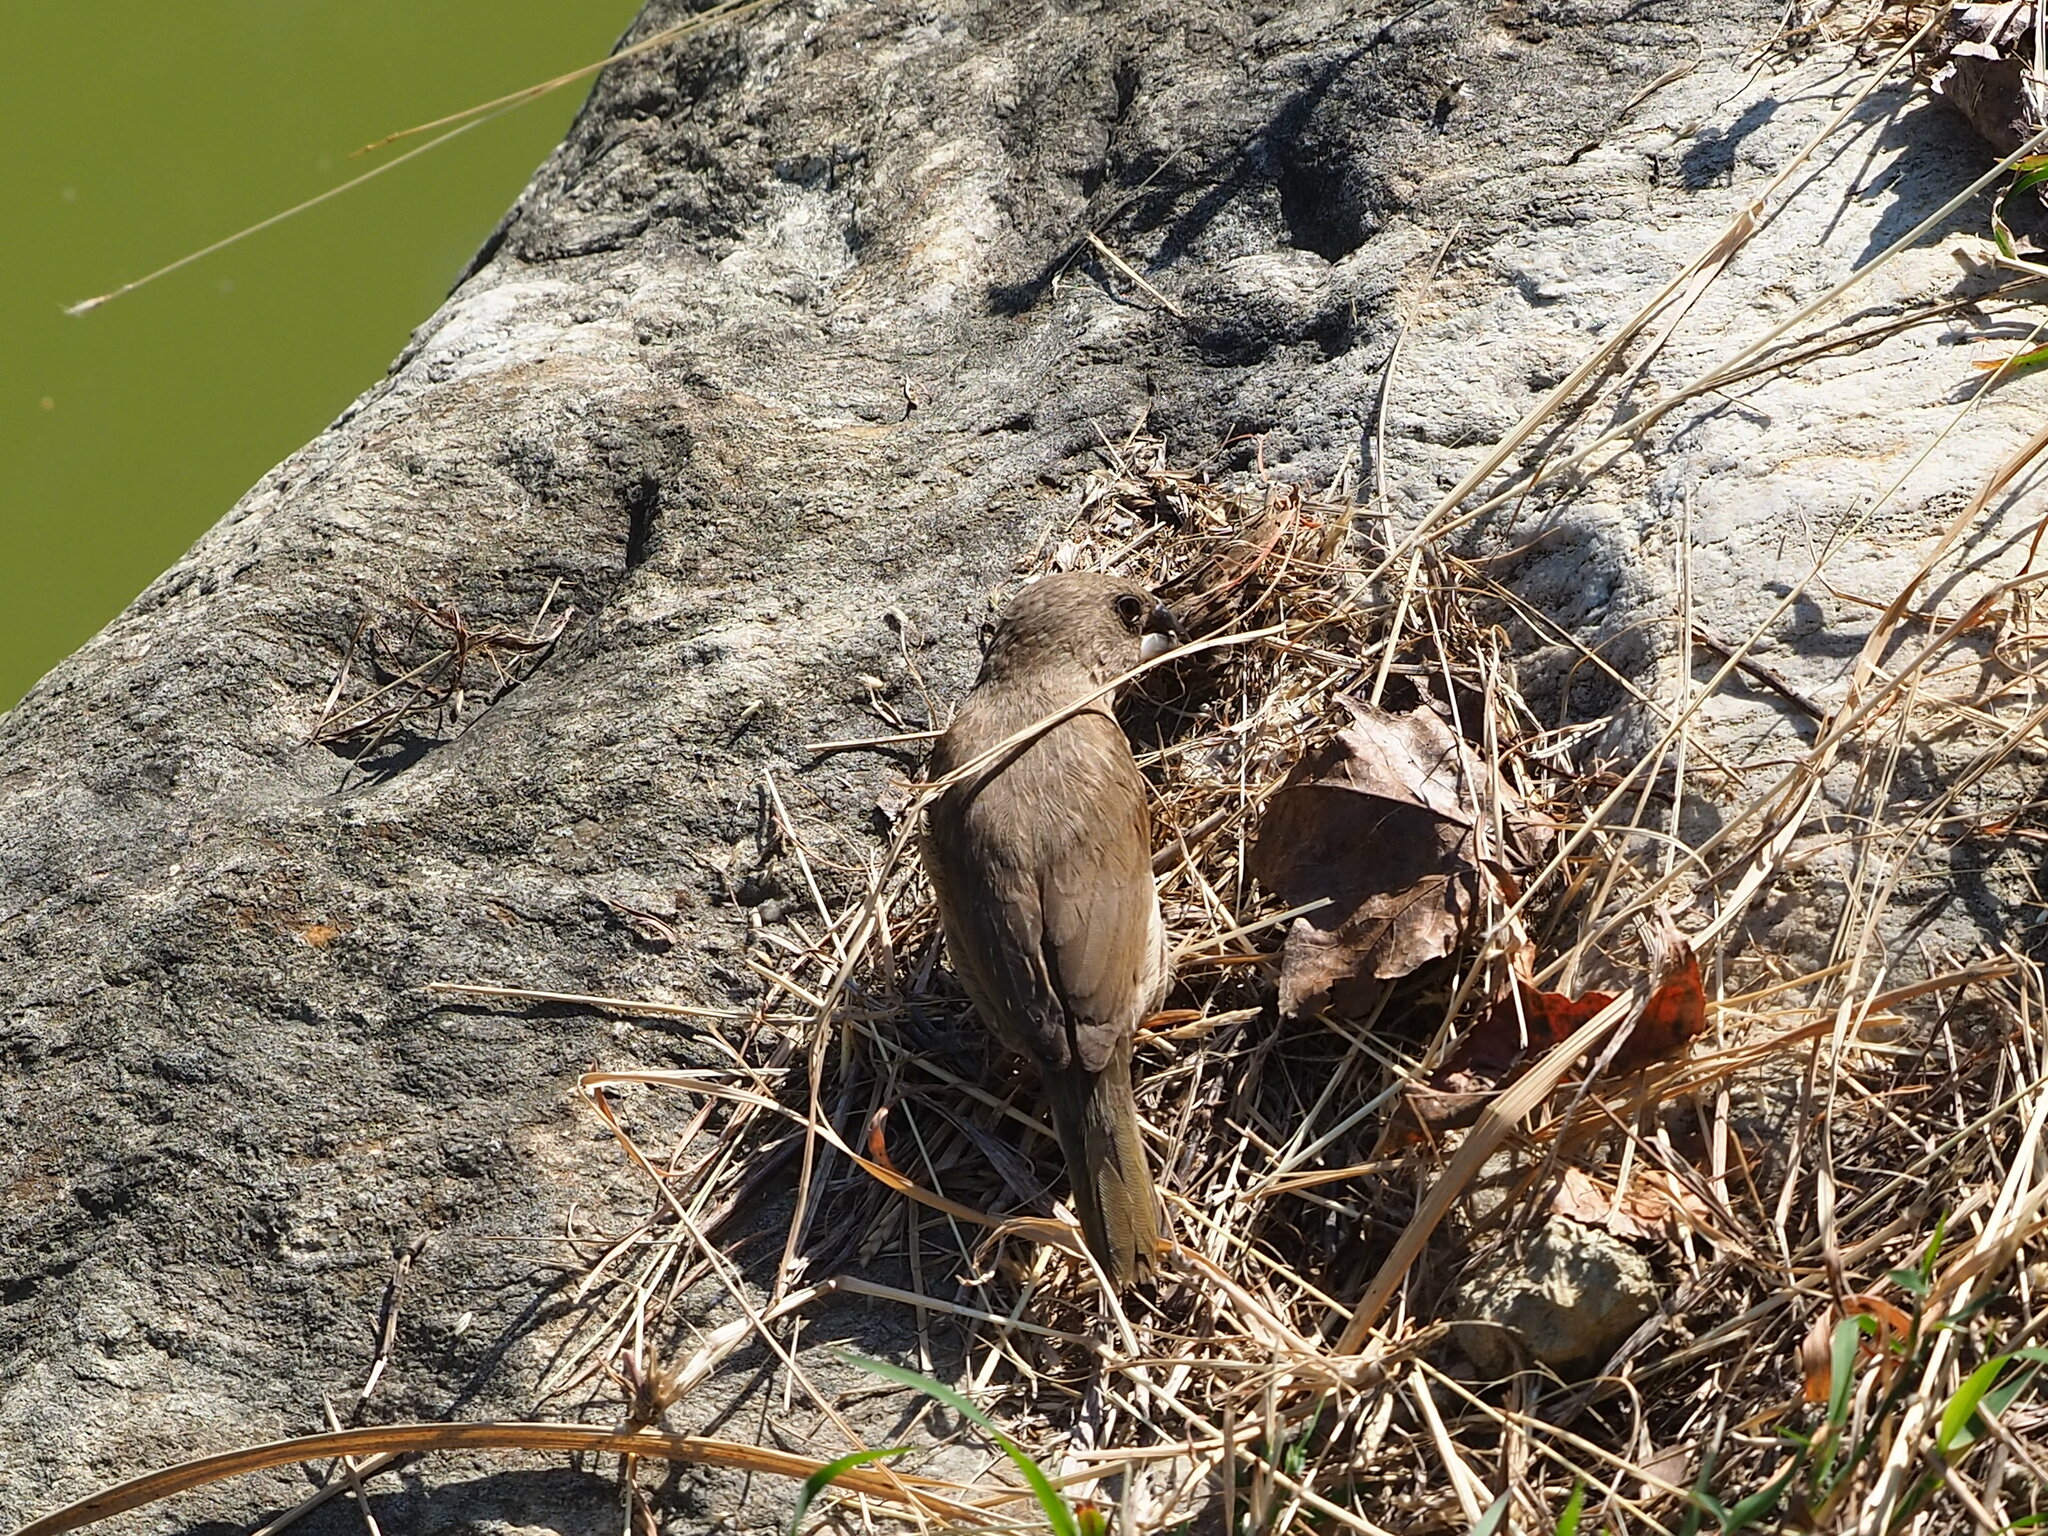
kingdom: Animalia
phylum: Chordata
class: Aves
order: Passeriformes
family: Estrildidae
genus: Lonchura
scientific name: Lonchura punctulata
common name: Scaly-breasted munia
